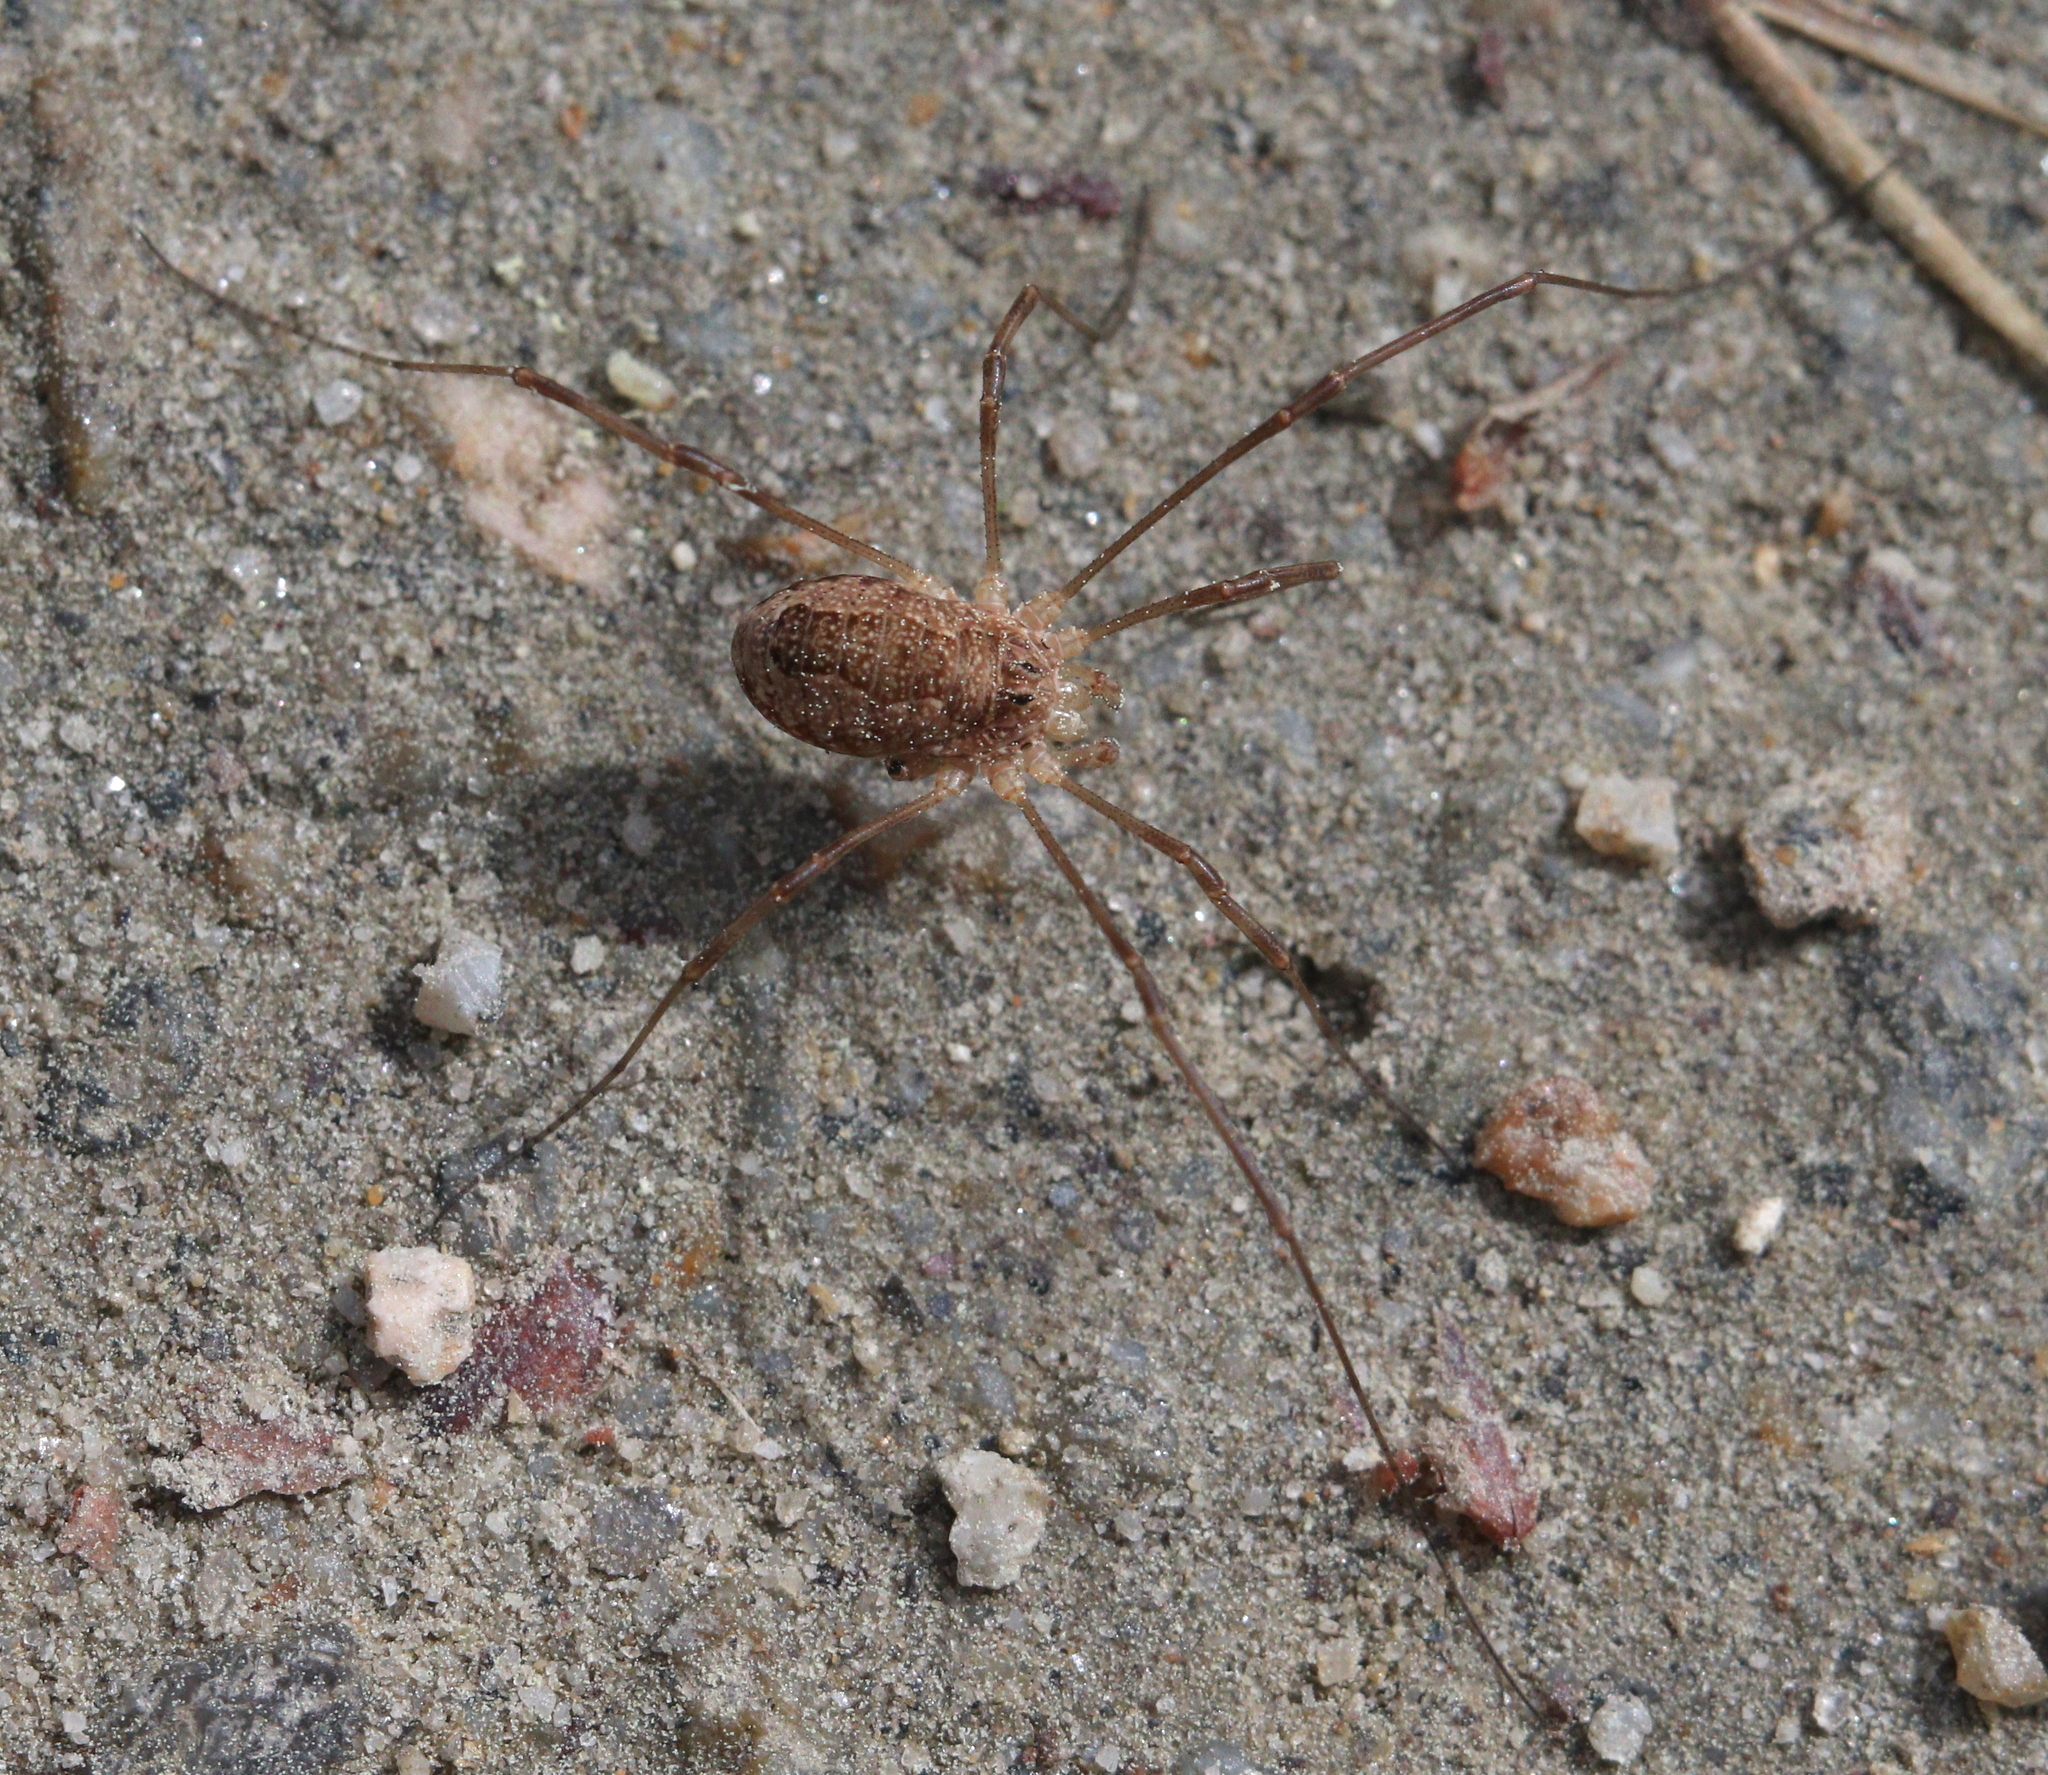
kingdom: Animalia
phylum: Arthropoda
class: Arachnida
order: Opiliones
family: Phalangiidae
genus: Rilaena
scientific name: Rilaena triangularis
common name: Spring harvestman
